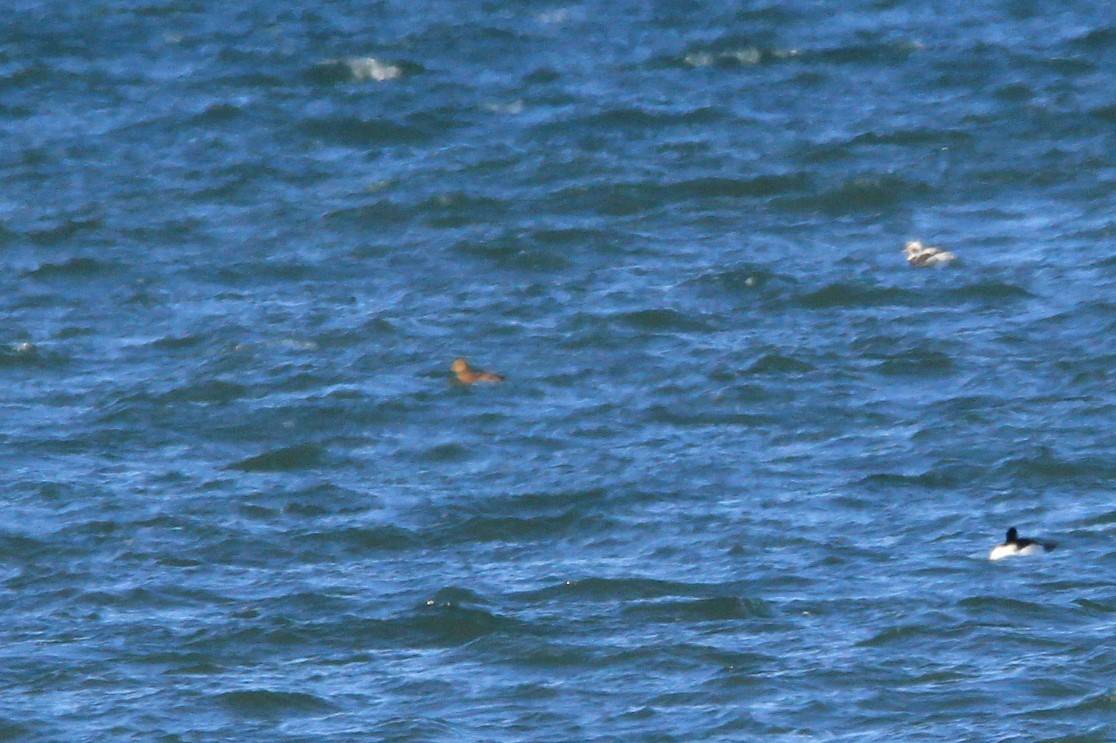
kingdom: Animalia
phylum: Chordata
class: Aves
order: Anseriformes
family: Anatidae
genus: Somateria
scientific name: Somateria spectabilis
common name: King eider
